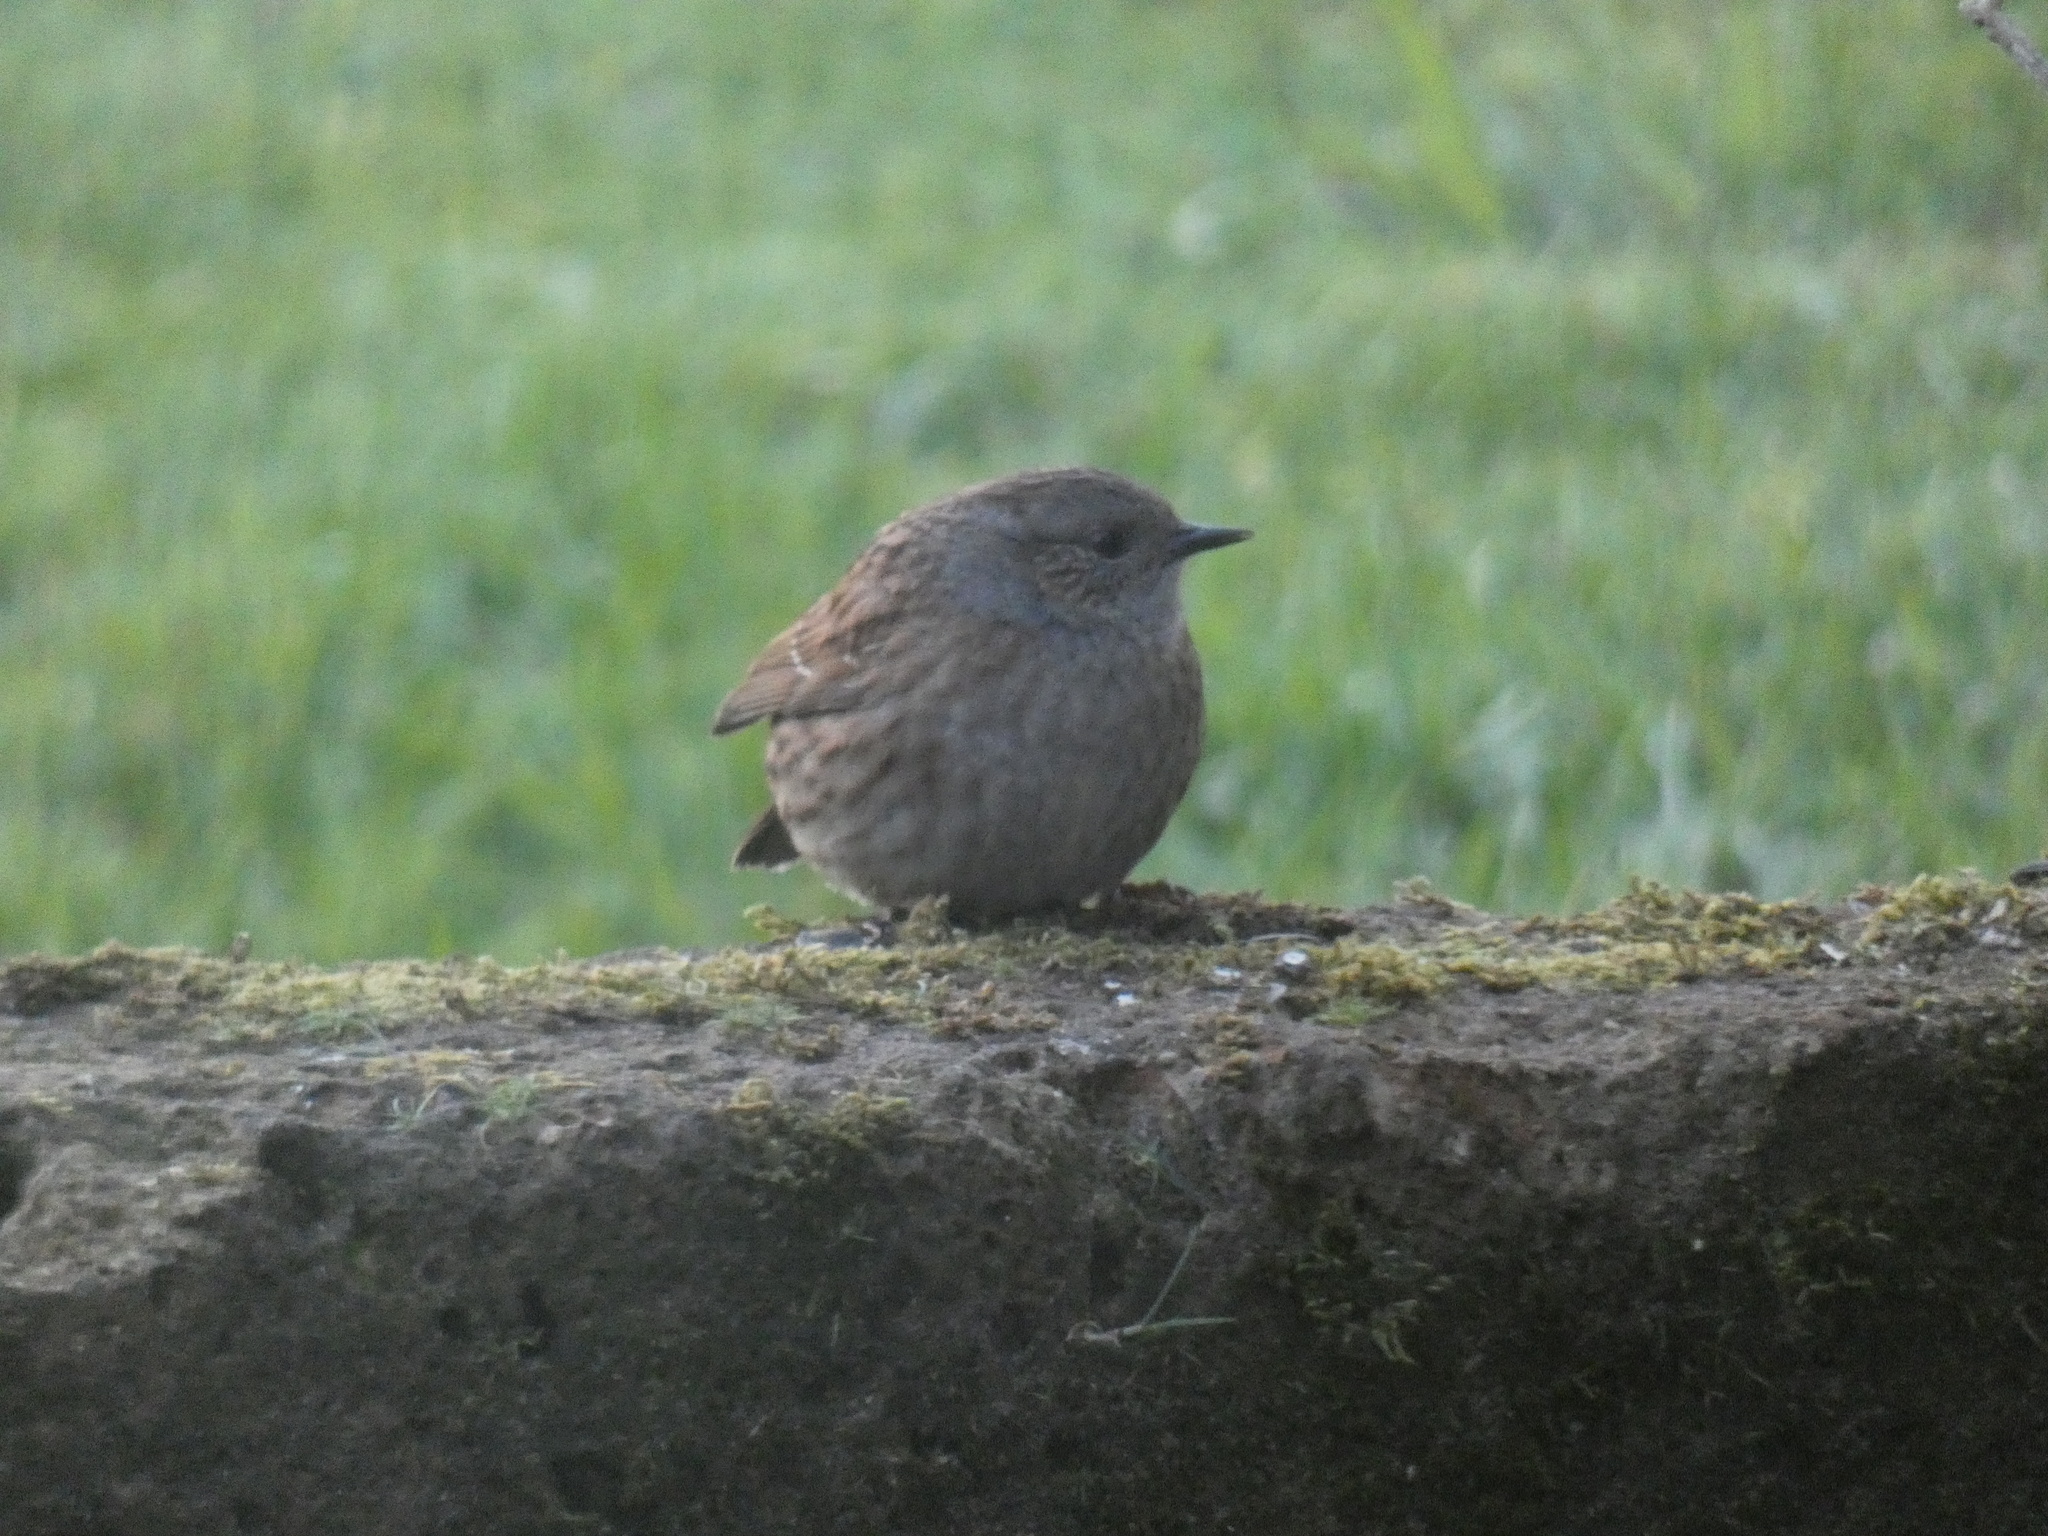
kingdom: Animalia
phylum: Chordata
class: Aves
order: Passeriformes
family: Prunellidae
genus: Prunella
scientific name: Prunella modularis
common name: Dunnock
